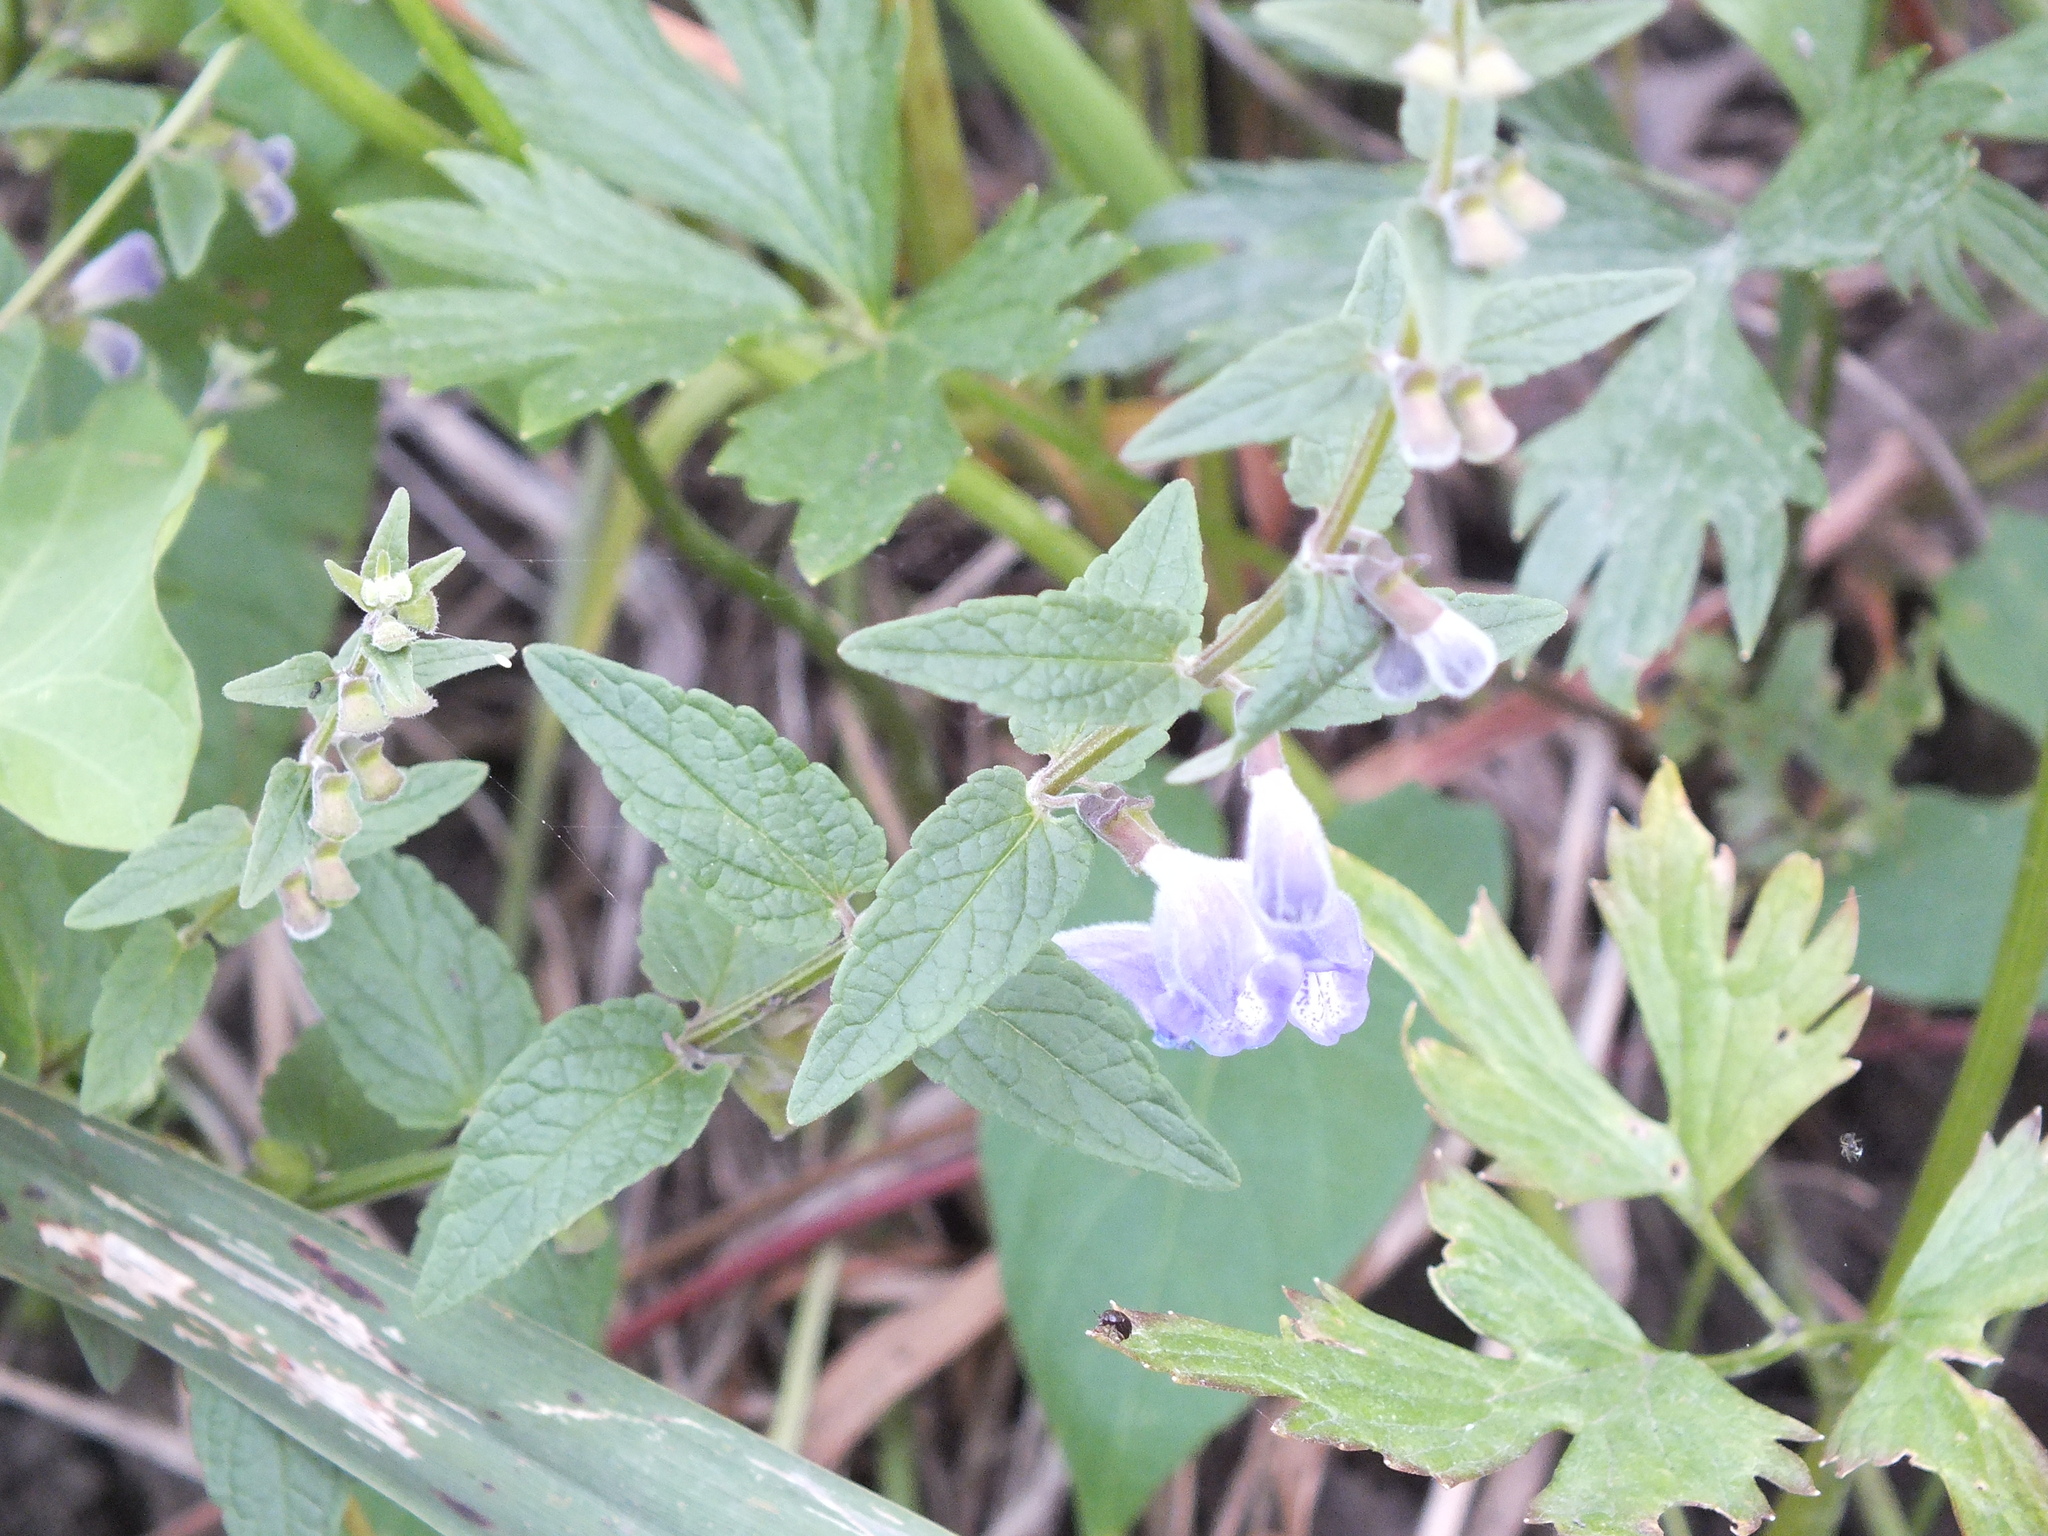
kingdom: Plantae
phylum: Tracheophyta
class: Magnoliopsida
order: Lamiales
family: Lamiaceae
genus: Scutellaria
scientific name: Scutellaria galericulata
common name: Skullcap
